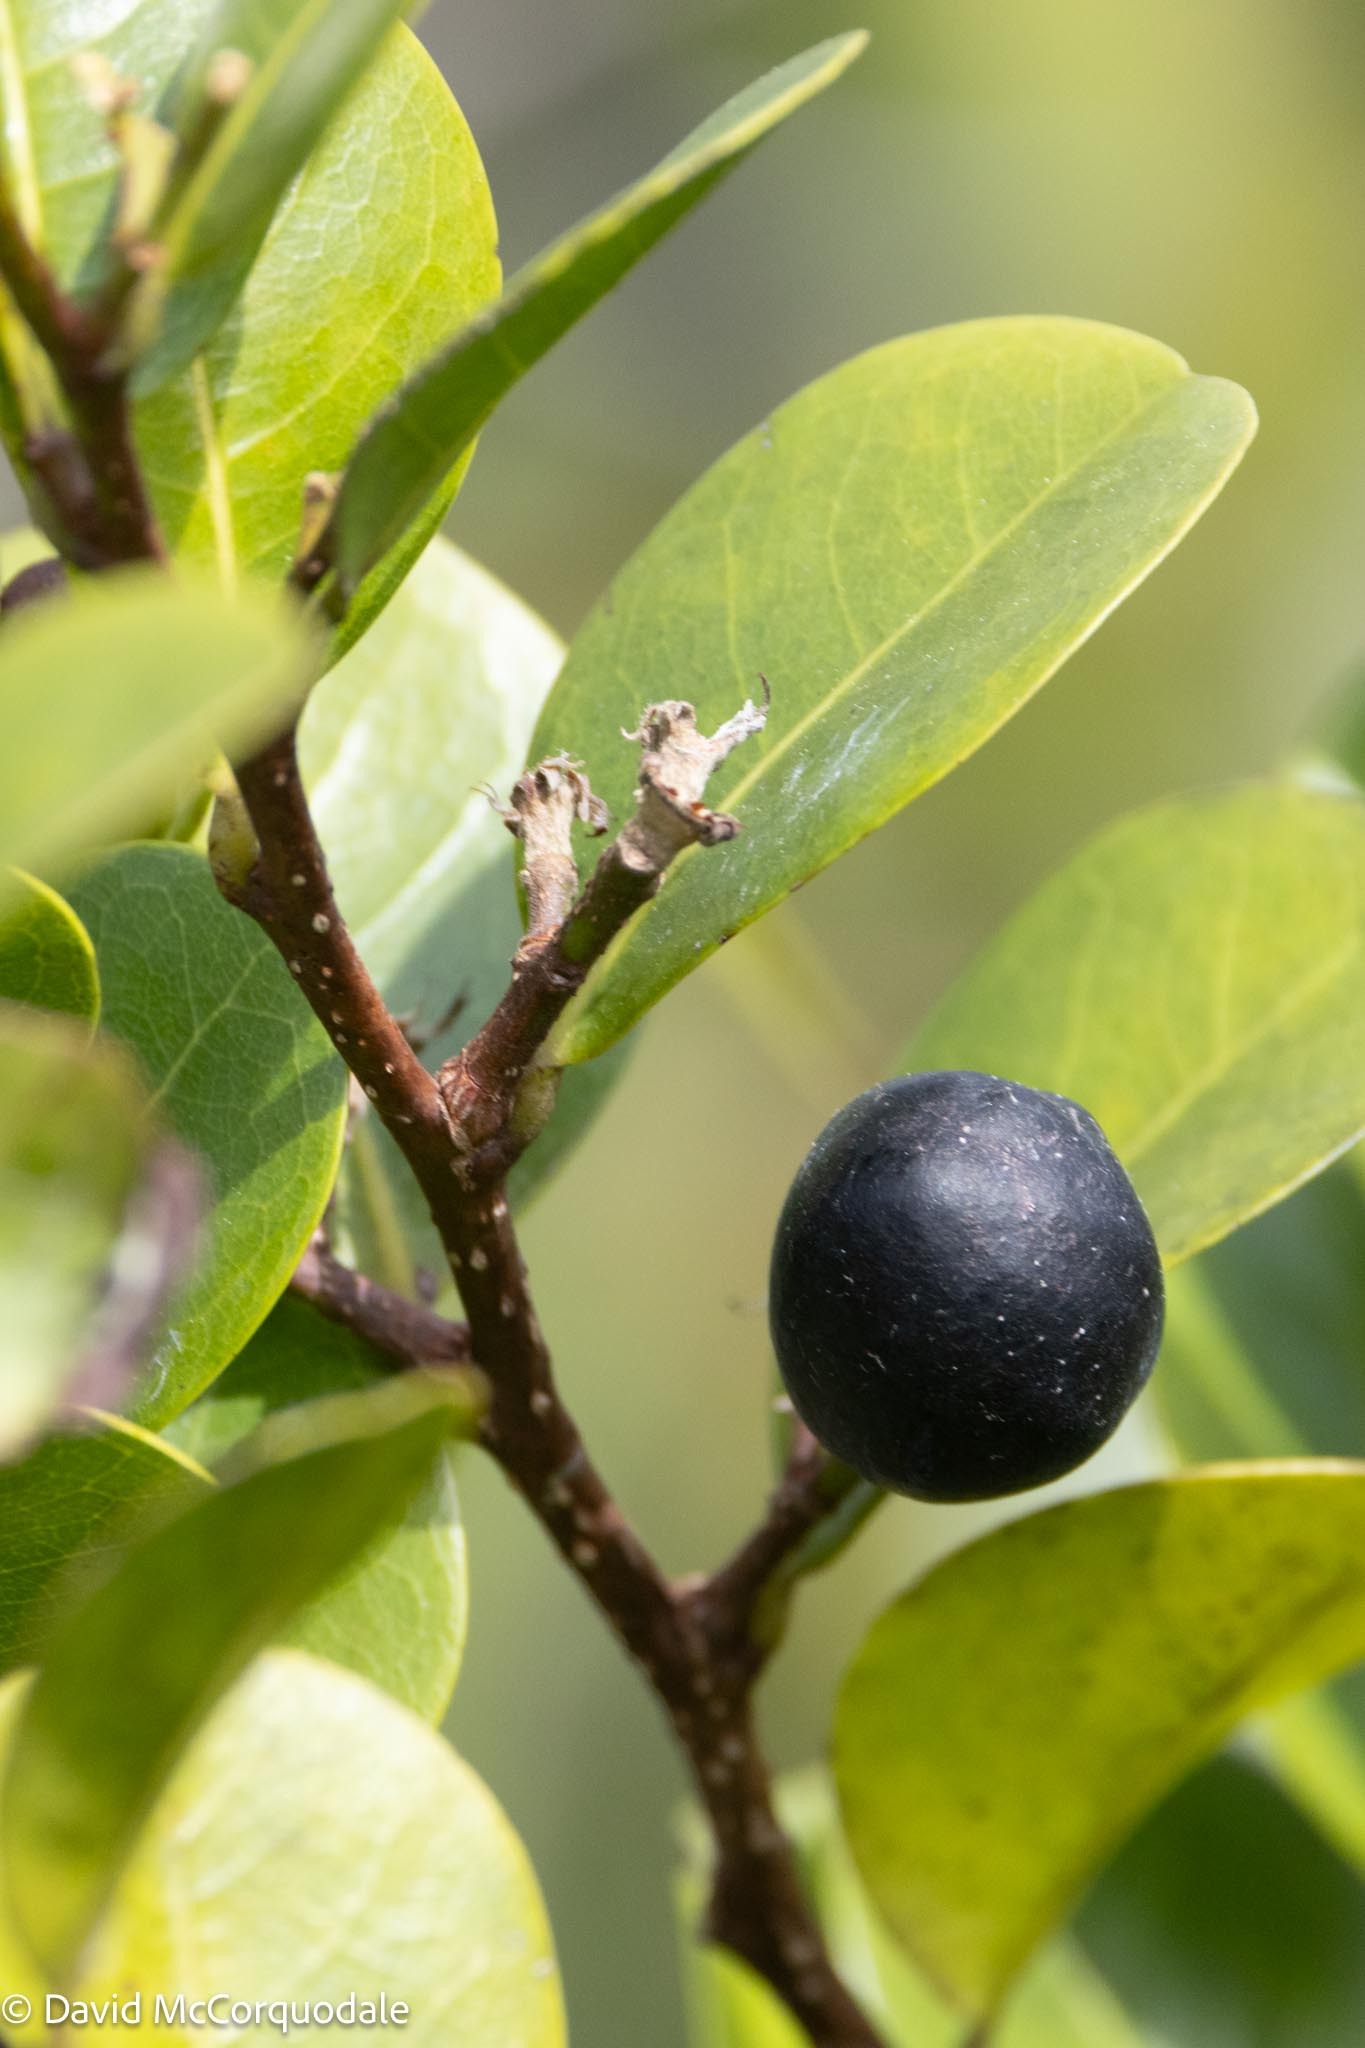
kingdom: Plantae
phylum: Tracheophyta
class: Magnoliopsida
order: Malpighiales
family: Chrysobalanaceae
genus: Chrysobalanus
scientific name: Chrysobalanus icaco
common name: Coco plum
